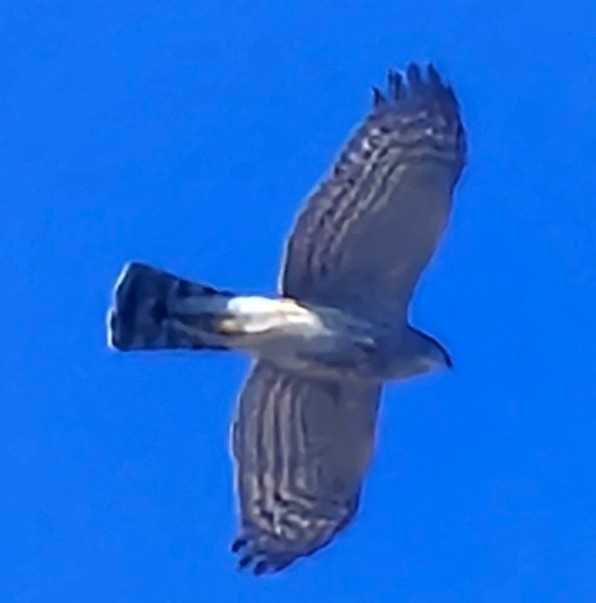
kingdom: Animalia
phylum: Chordata
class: Aves
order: Accipitriformes
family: Accipitridae
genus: Accipiter
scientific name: Accipiter striatus
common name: Sharp-shinned hawk
